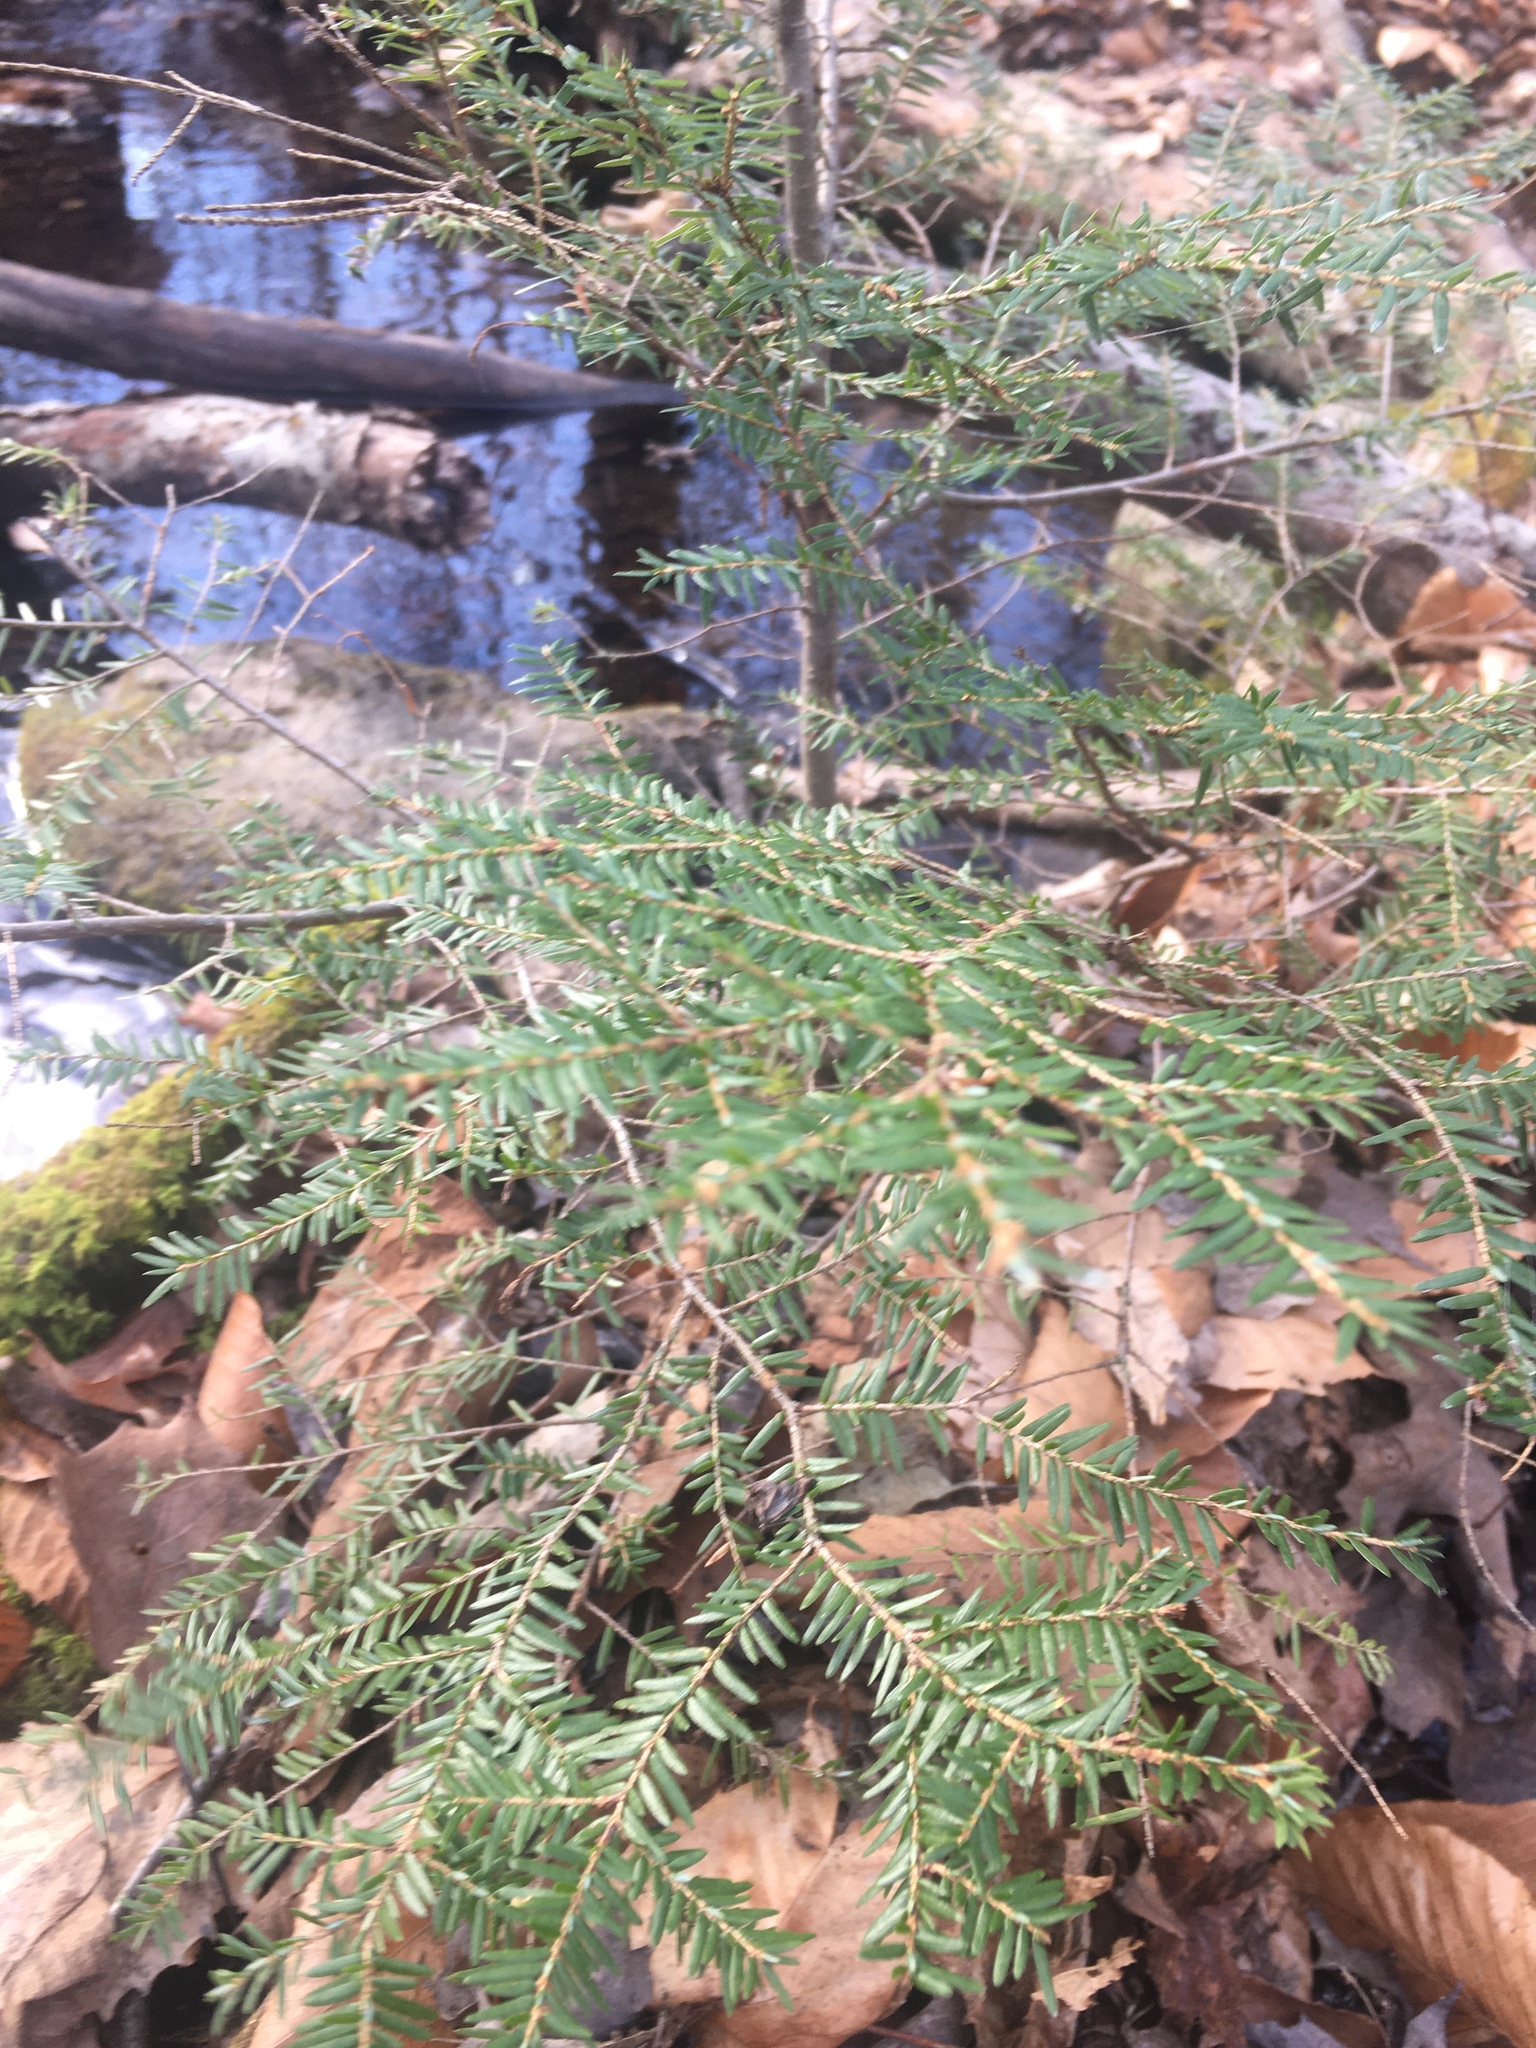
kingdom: Plantae
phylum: Tracheophyta
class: Pinopsida
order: Pinales
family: Pinaceae
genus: Tsuga
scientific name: Tsuga canadensis
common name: Eastern hemlock
